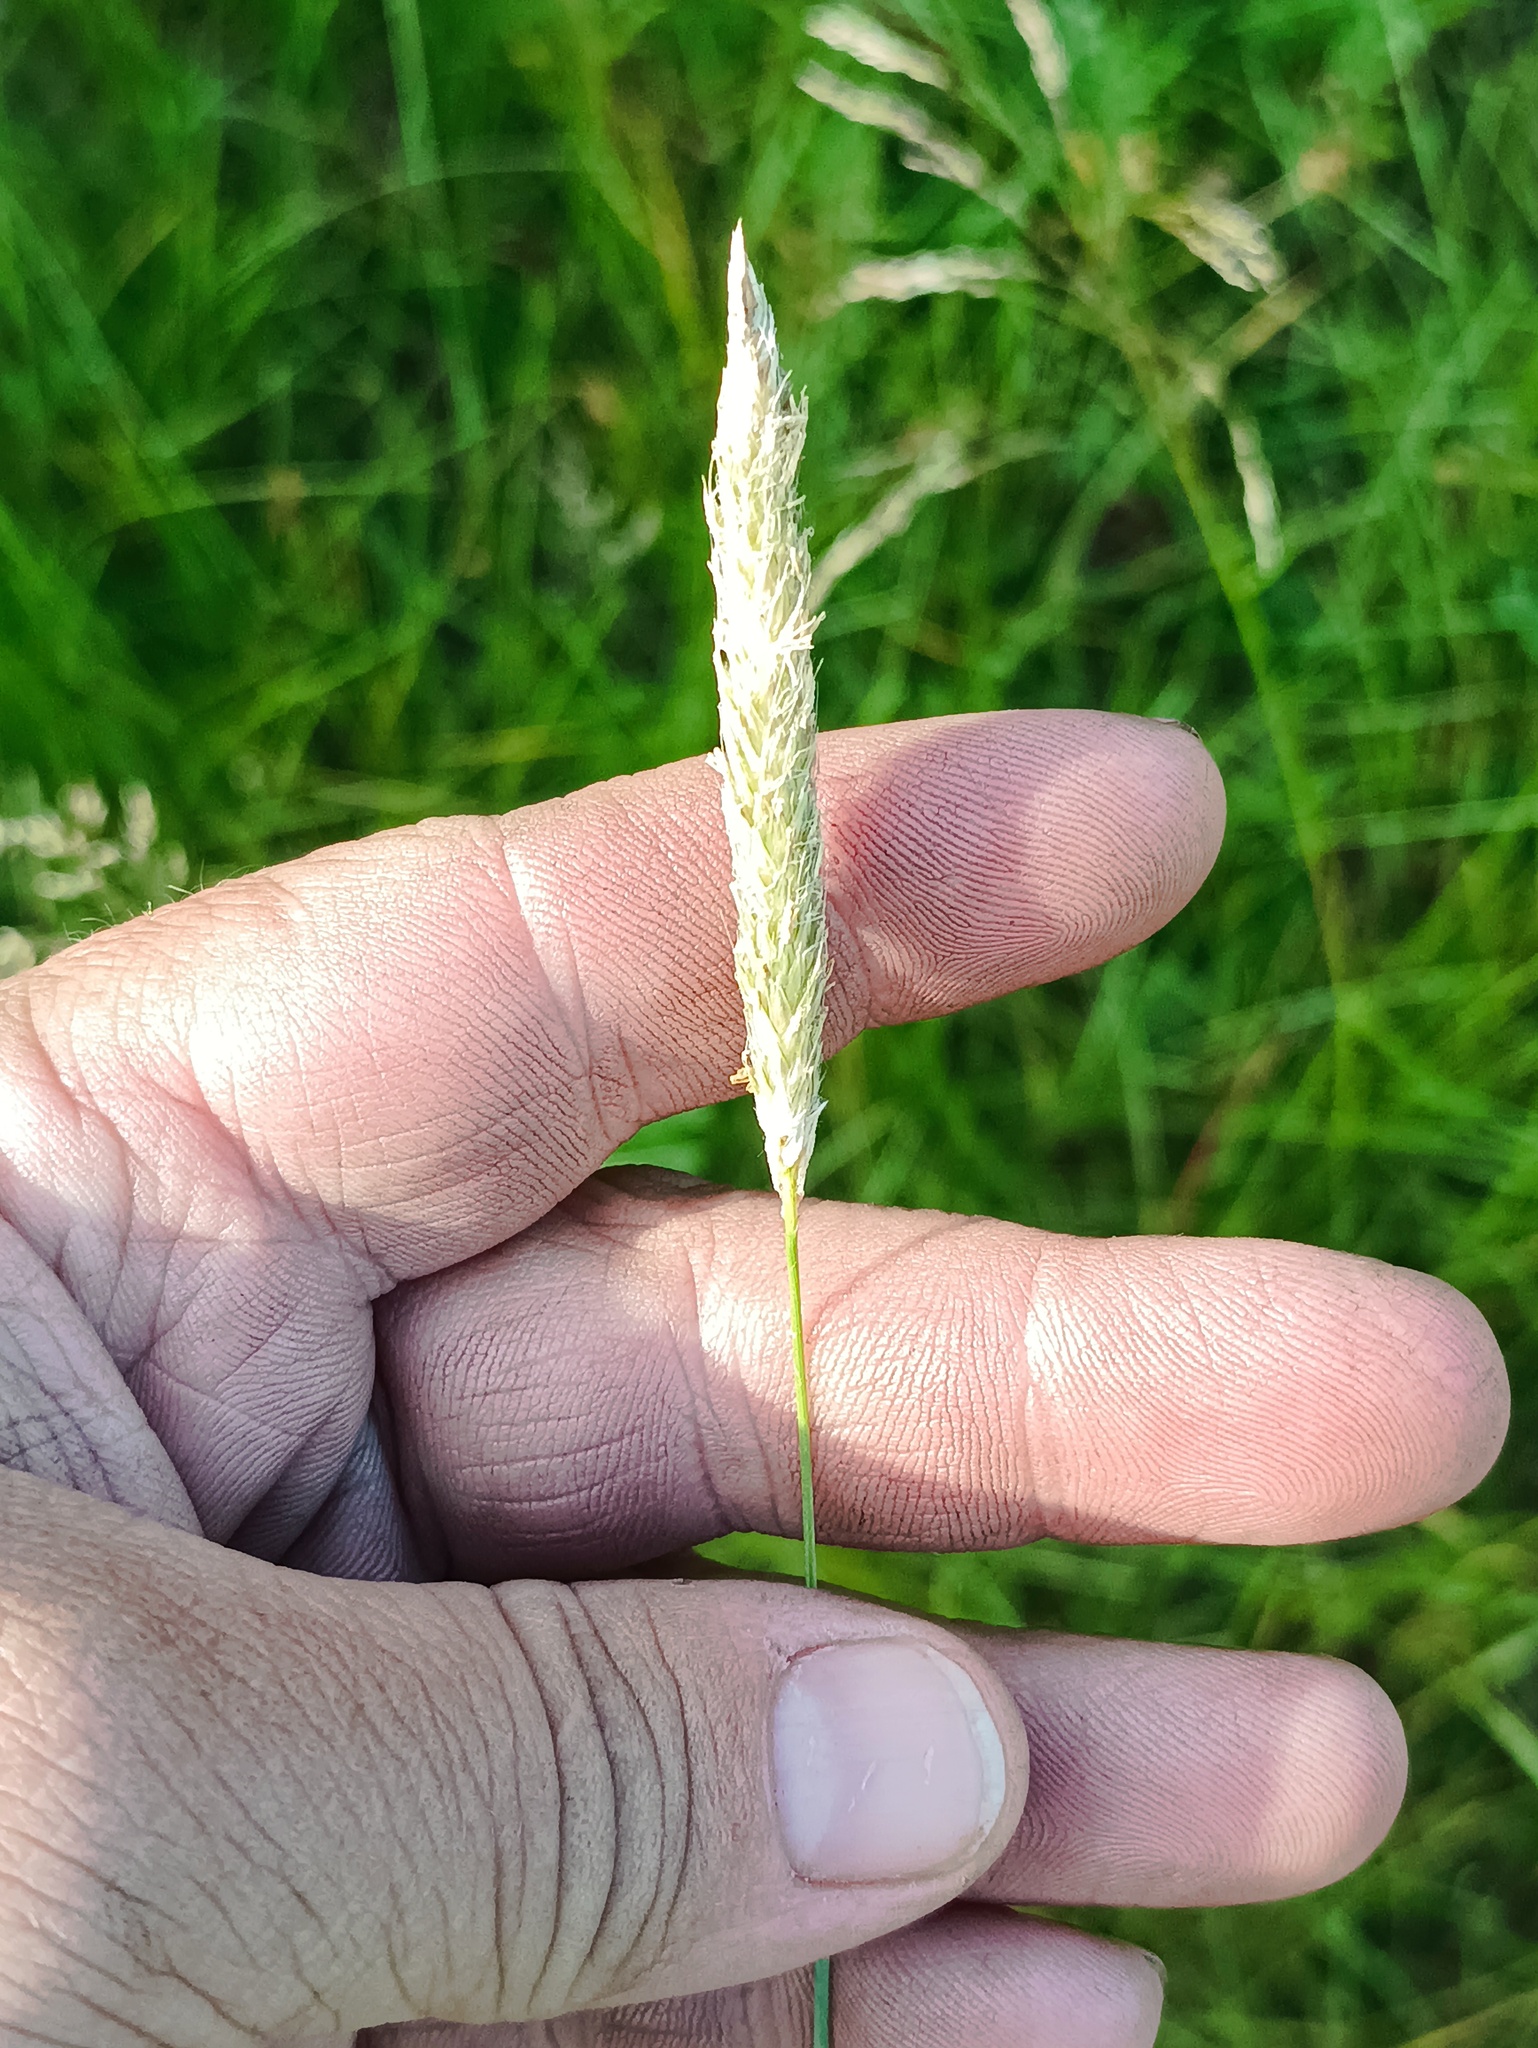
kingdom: Plantae
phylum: Tracheophyta
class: Liliopsida
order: Poales
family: Poaceae
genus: Alopecurus
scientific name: Alopecurus pratensis
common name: Meadow foxtail
